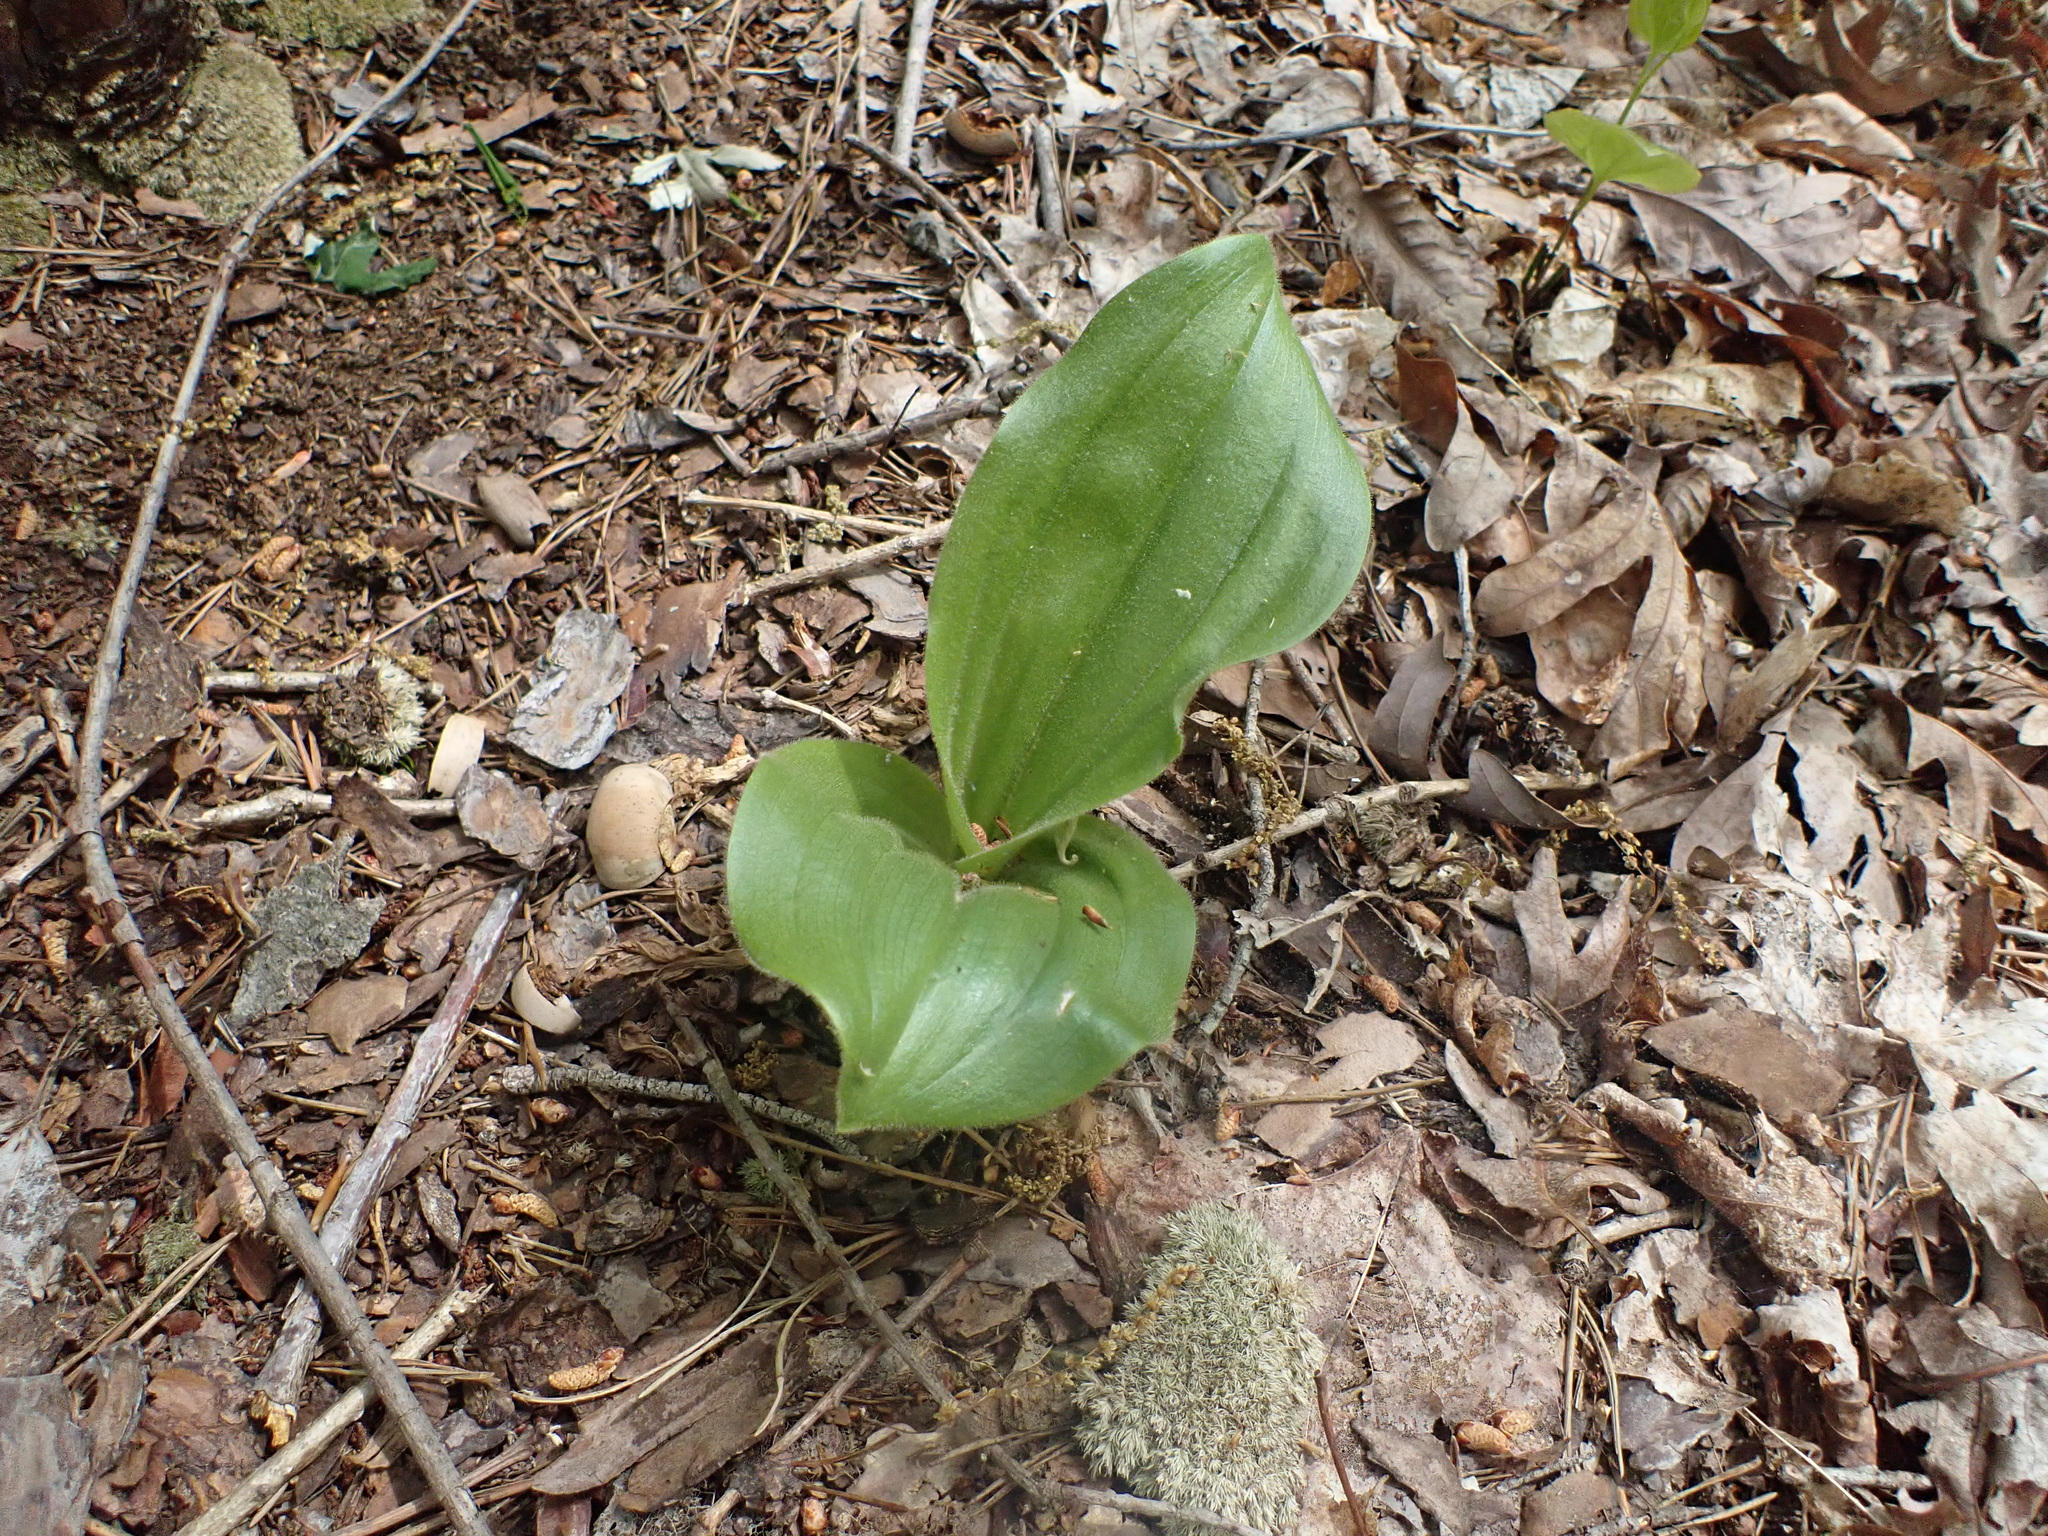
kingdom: Plantae
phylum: Tracheophyta
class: Liliopsida
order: Asparagales
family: Orchidaceae
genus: Cypripedium
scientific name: Cypripedium acaule
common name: Pink lady's-slipper
